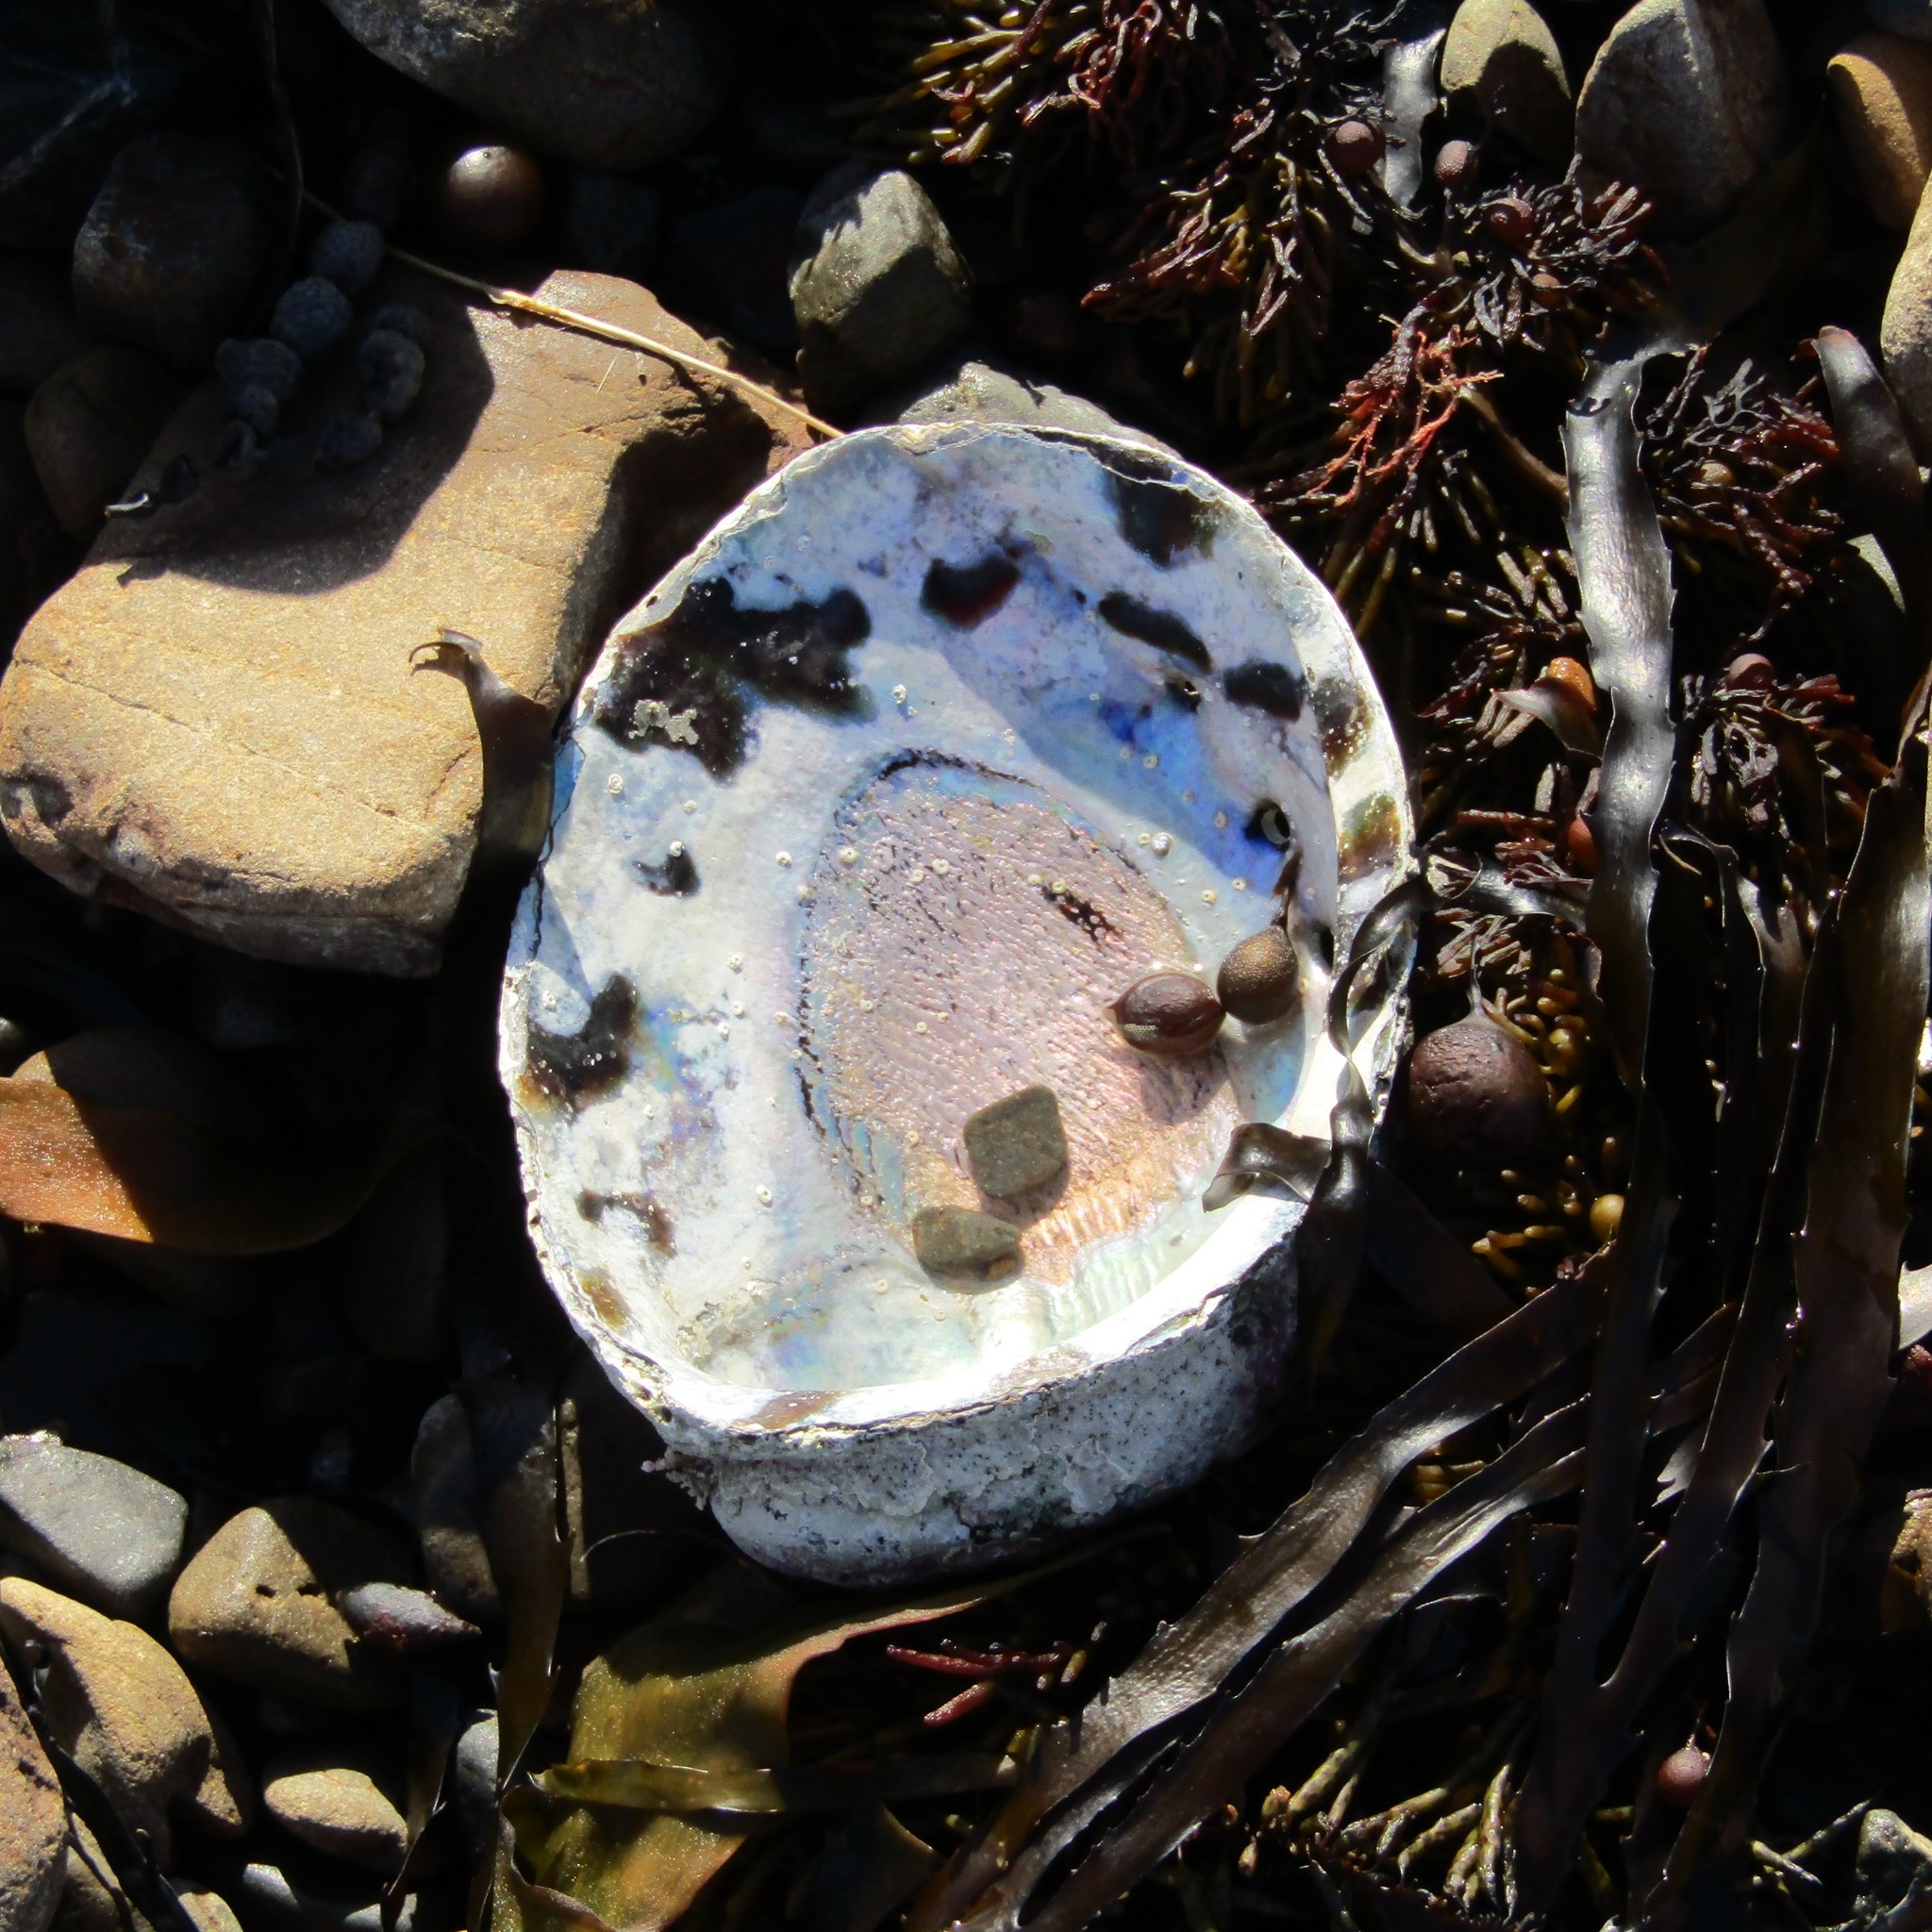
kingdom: Animalia
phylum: Mollusca
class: Gastropoda
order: Lepetellida
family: Haliotidae
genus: Haliotis
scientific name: Haliotis iris
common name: Abalone
